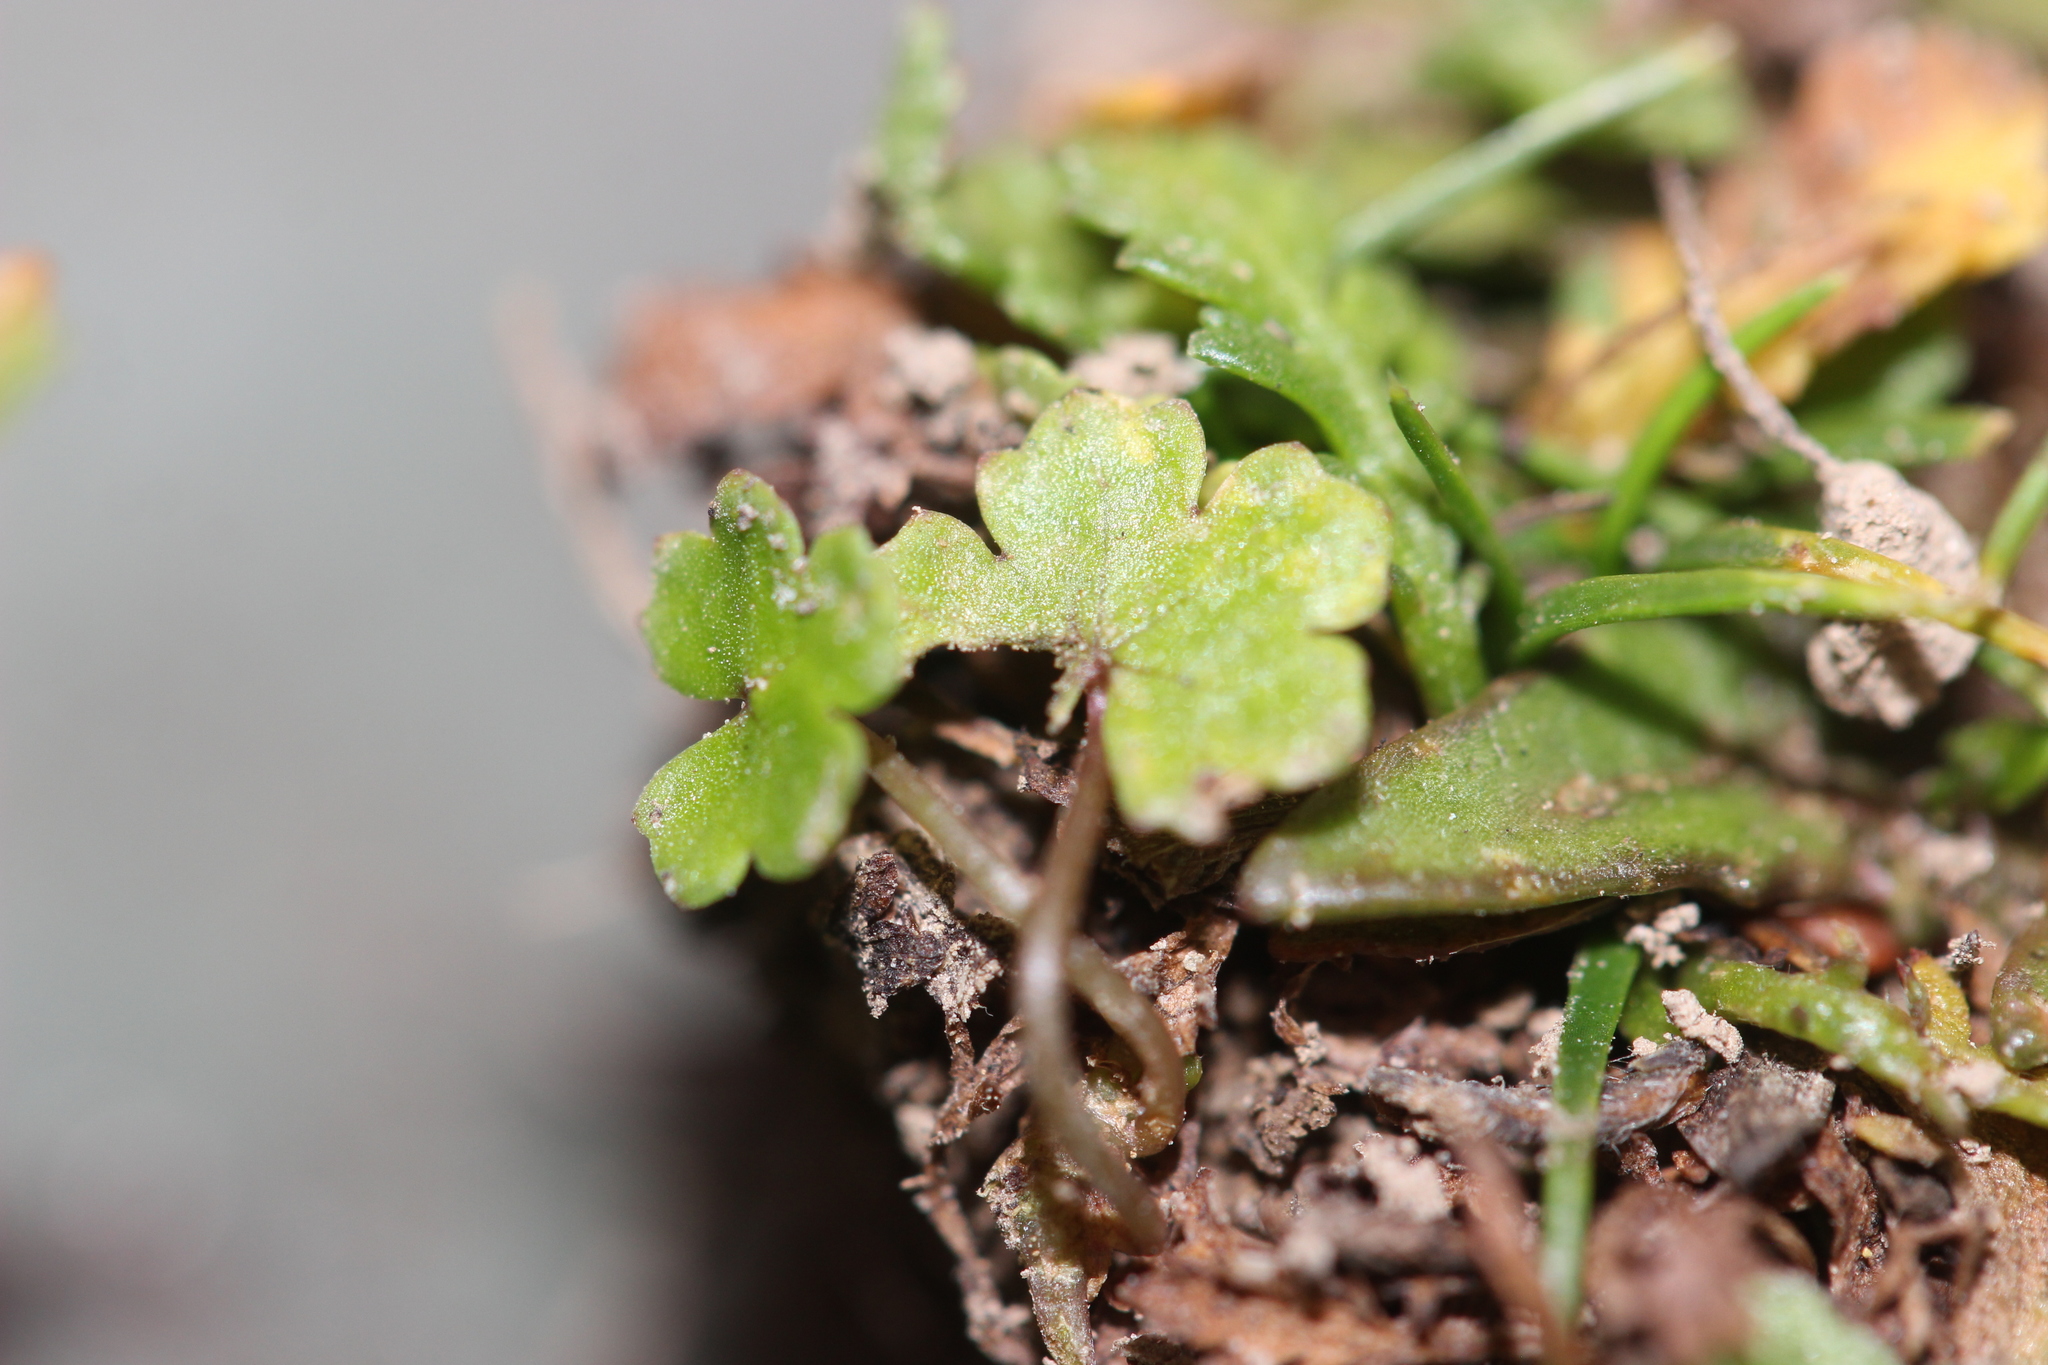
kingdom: Plantae
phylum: Tracheophyta
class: Magnoliopsida
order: Apiales
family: Araliaceae
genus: Hydrocotyle
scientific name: Hydrocotyle heteromeria
